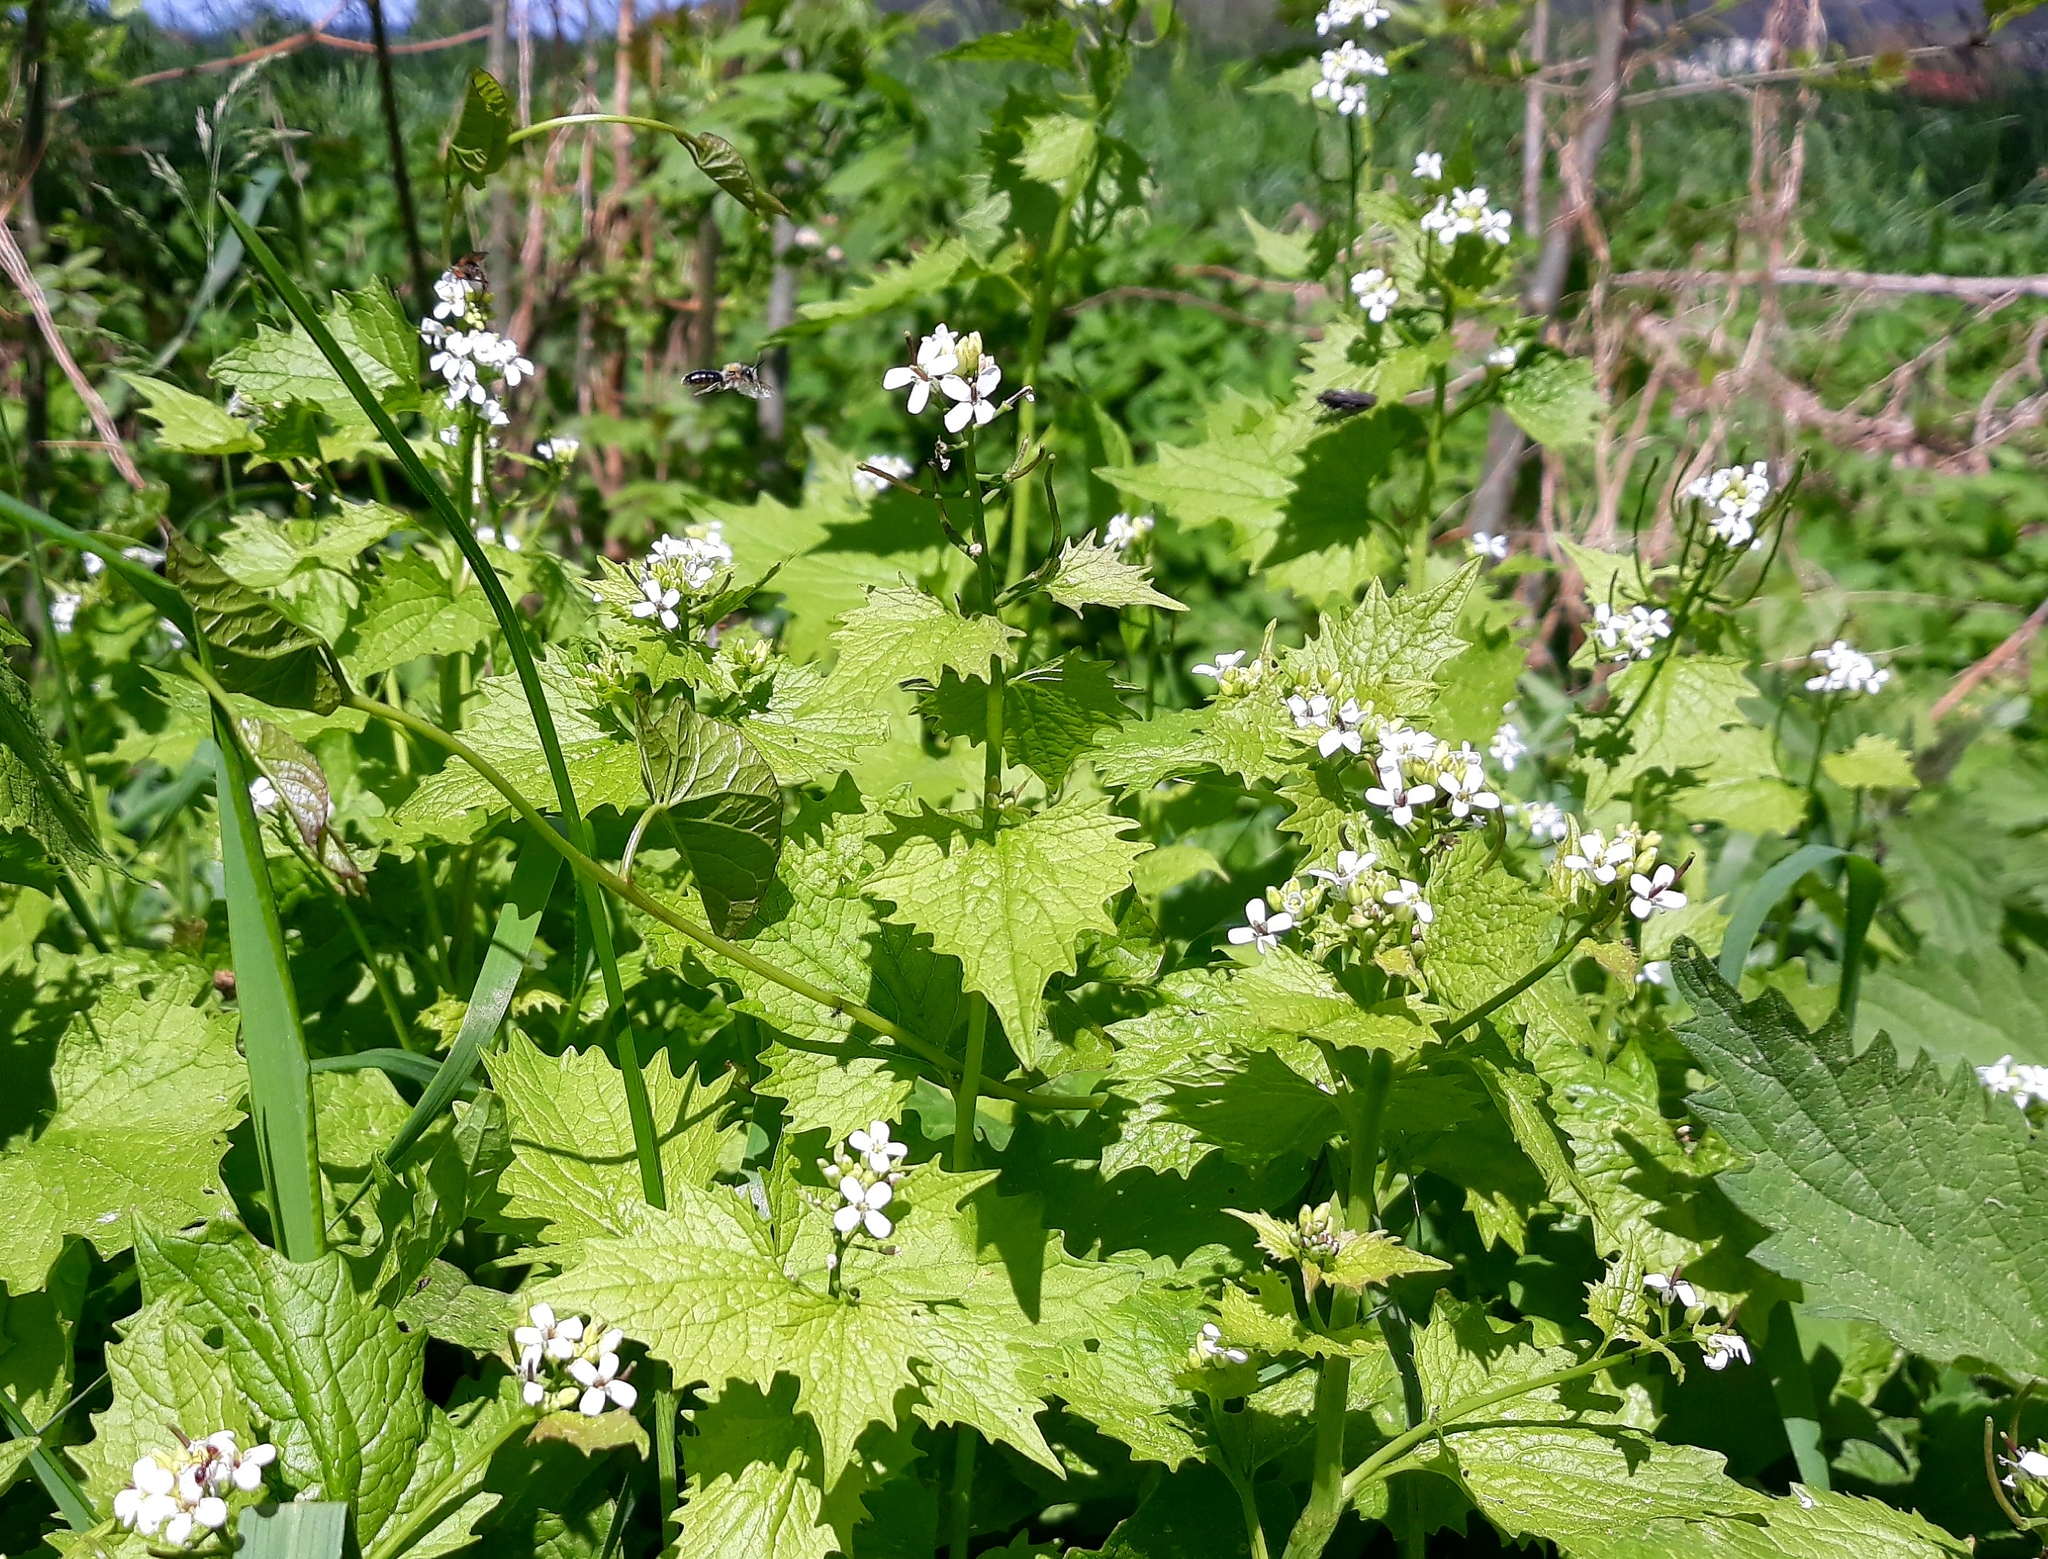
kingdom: Plantae
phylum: Tracheophyta
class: Magnoliopsida
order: Brassicales
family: Brassicaceae
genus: Alliaria
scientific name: Alliaria petiolata
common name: Garlic mustard
